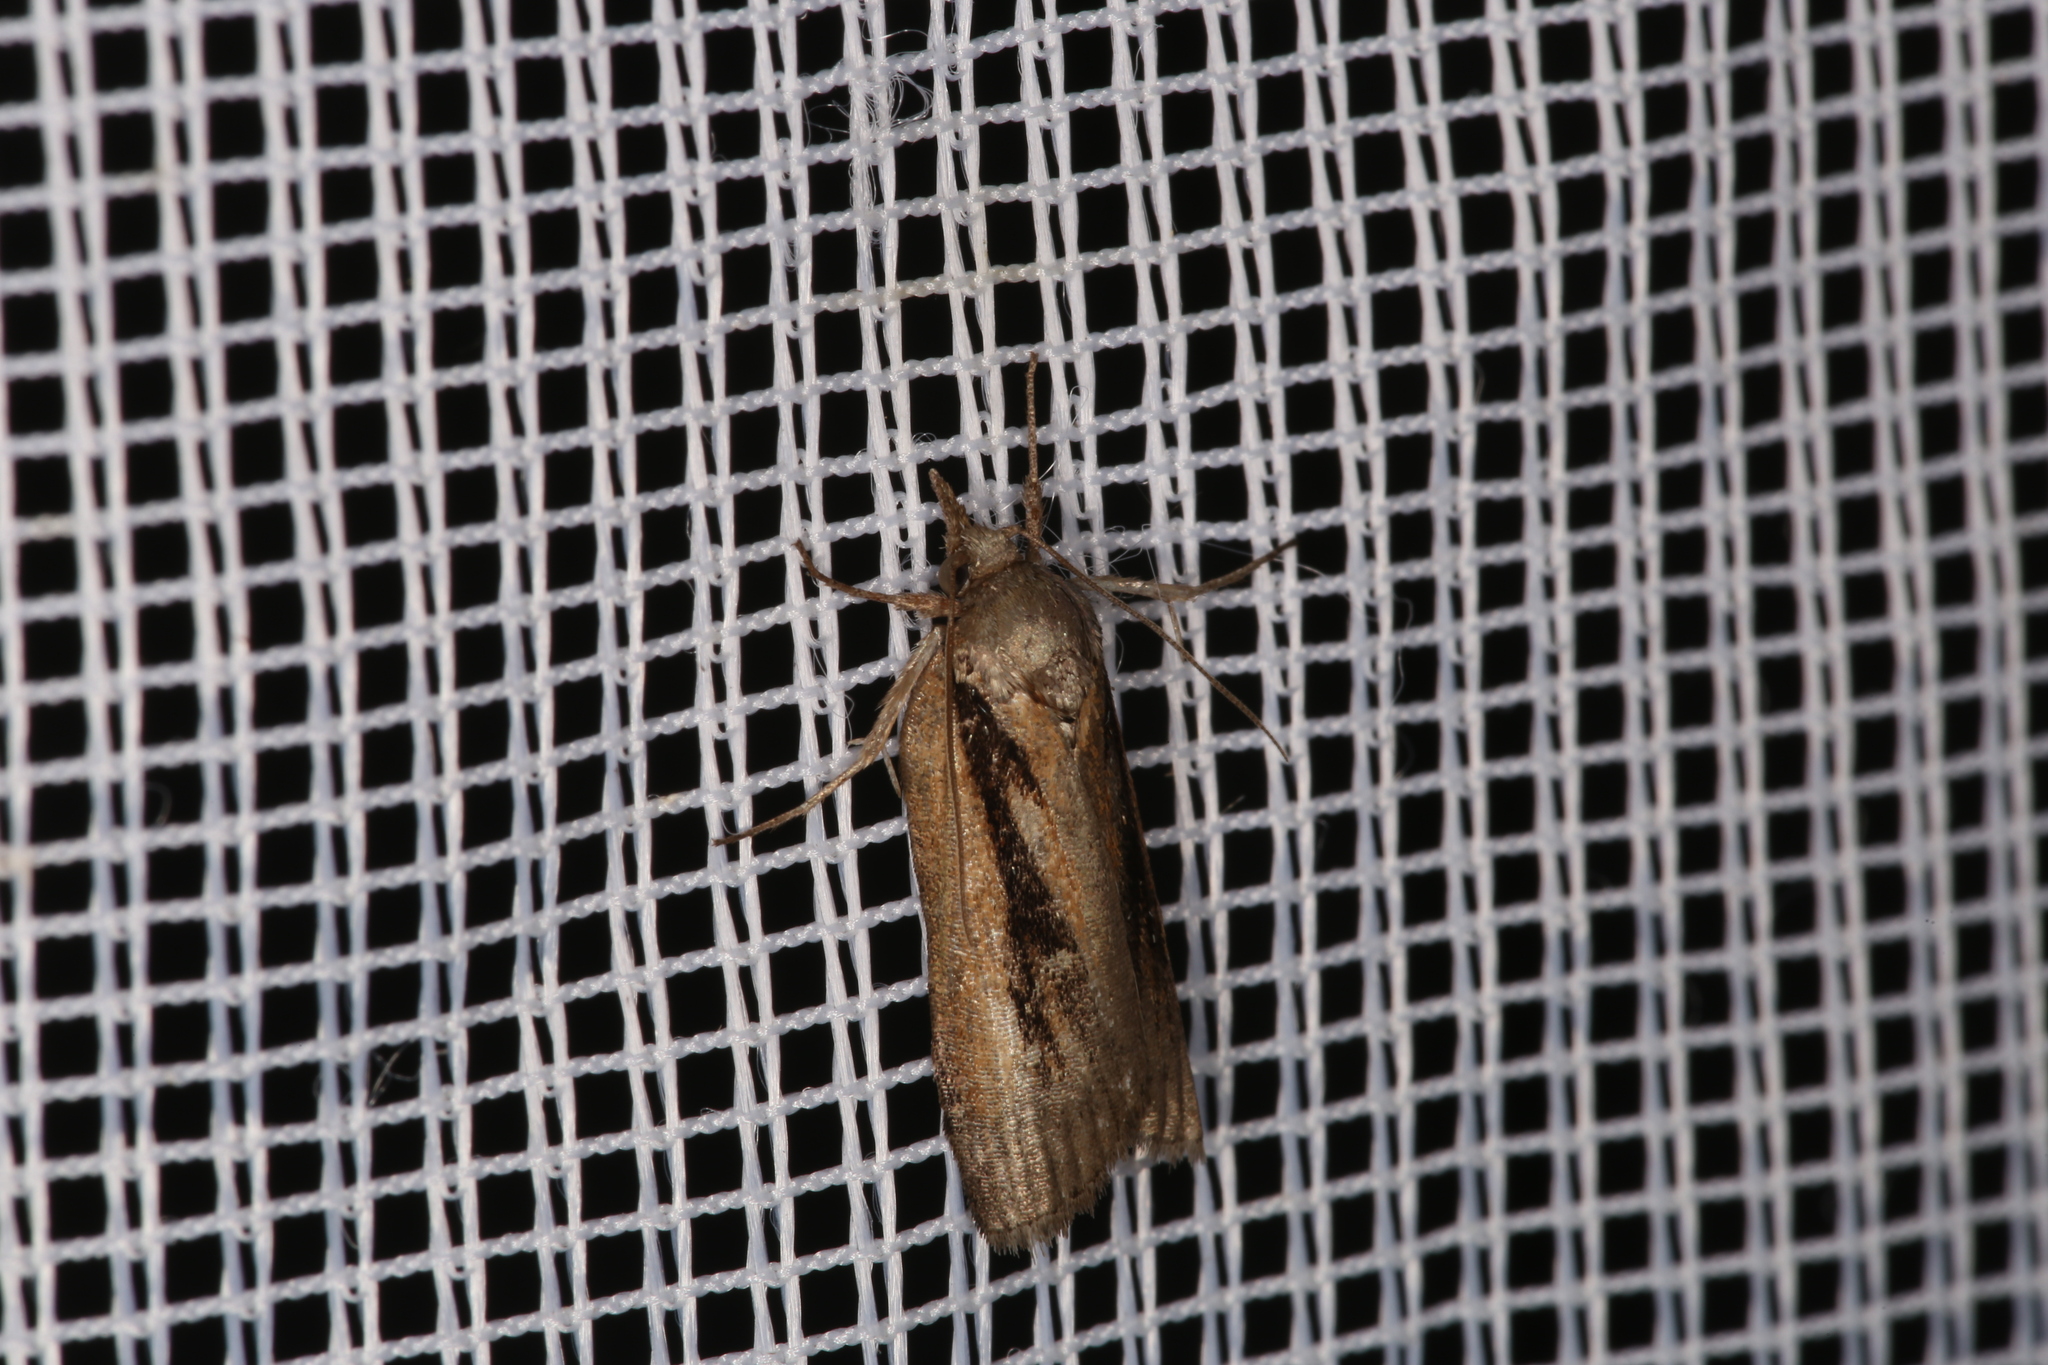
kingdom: Animalia
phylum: Arthropoda
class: Insecta
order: Lepidoptera
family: Nolidae
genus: Nycteola
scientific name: Nycteola revayana
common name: Oak nycteoline
